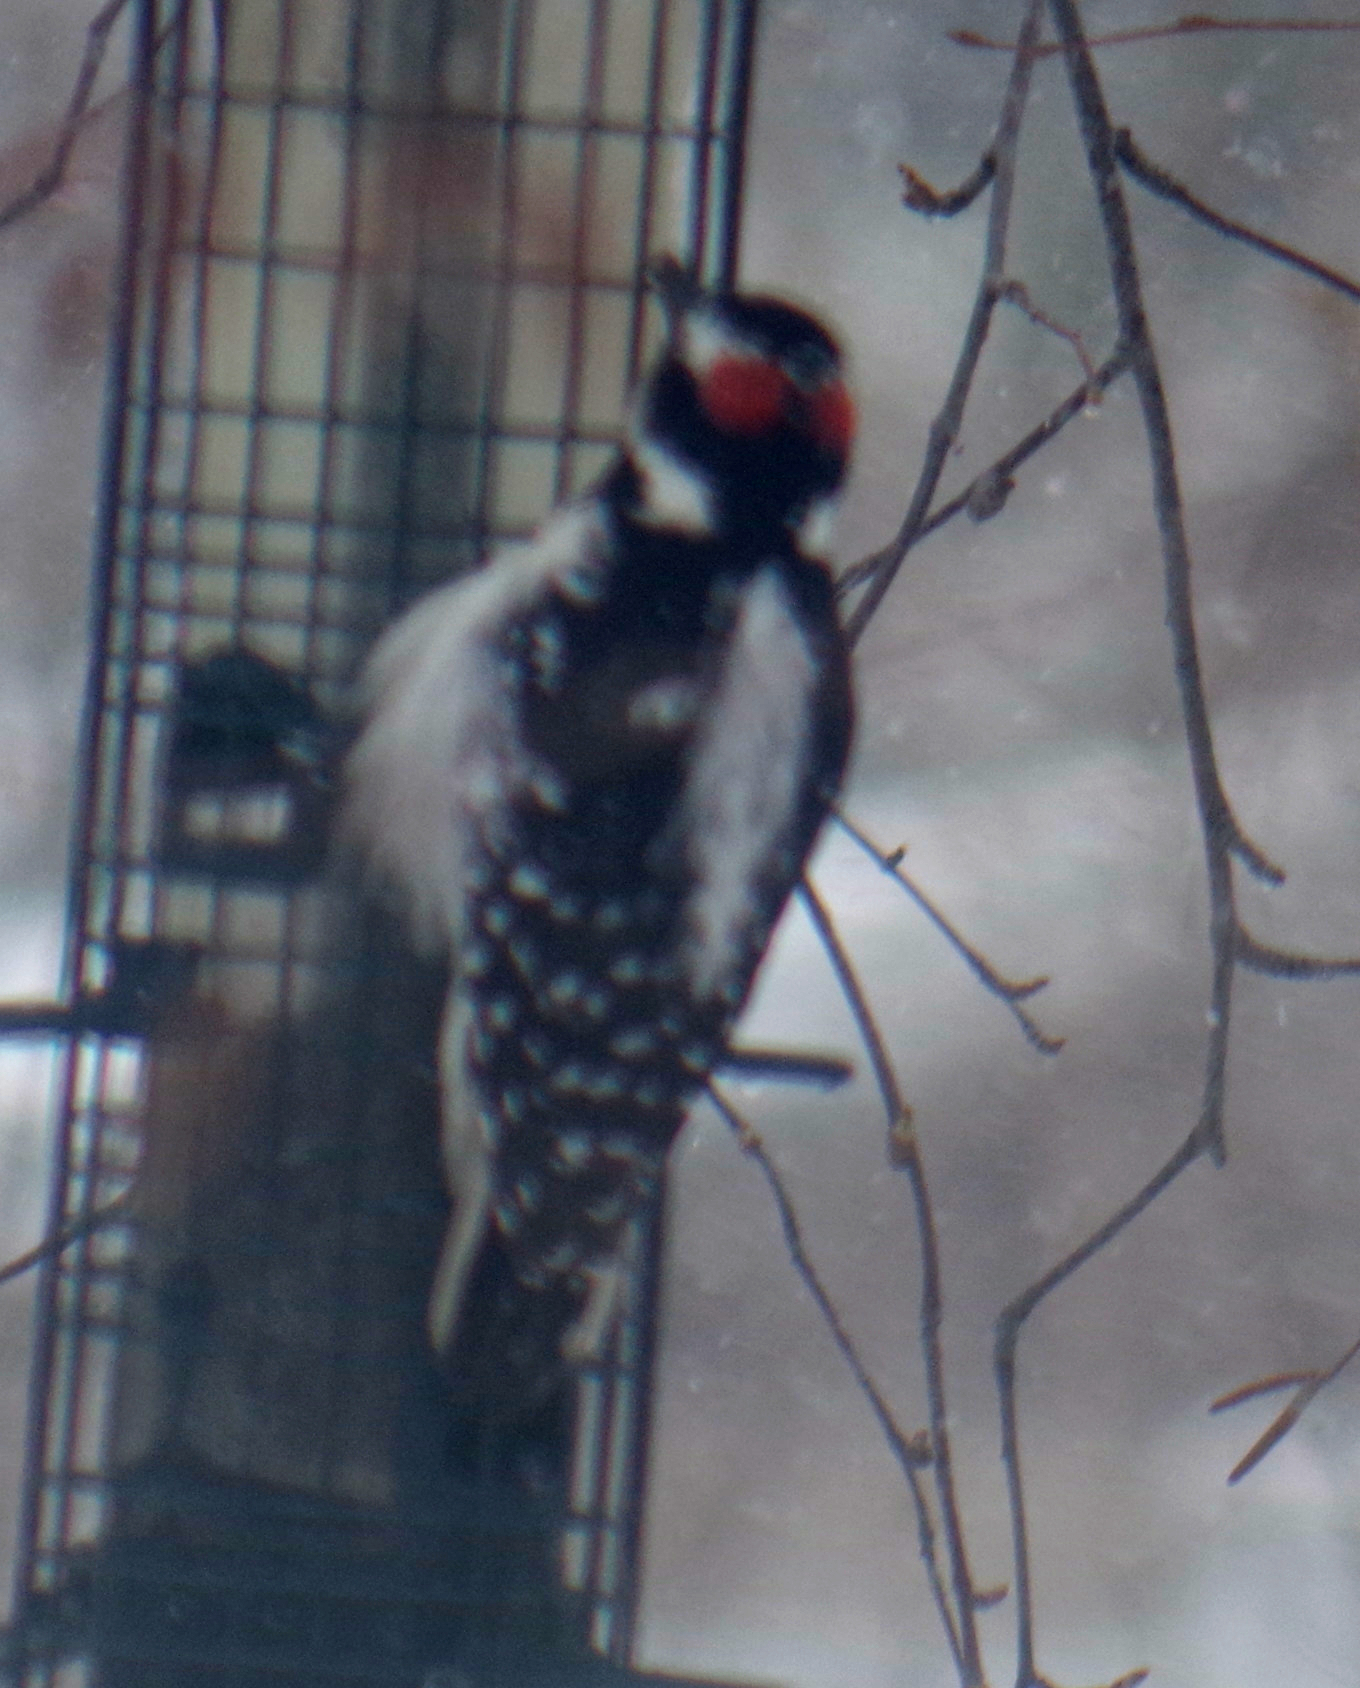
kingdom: Animalia
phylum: Chordata
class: Aves
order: Piciformes
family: Picidae
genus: Leuconotopicus
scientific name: Leuconotopicus villosus
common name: Hairy woodpecker
